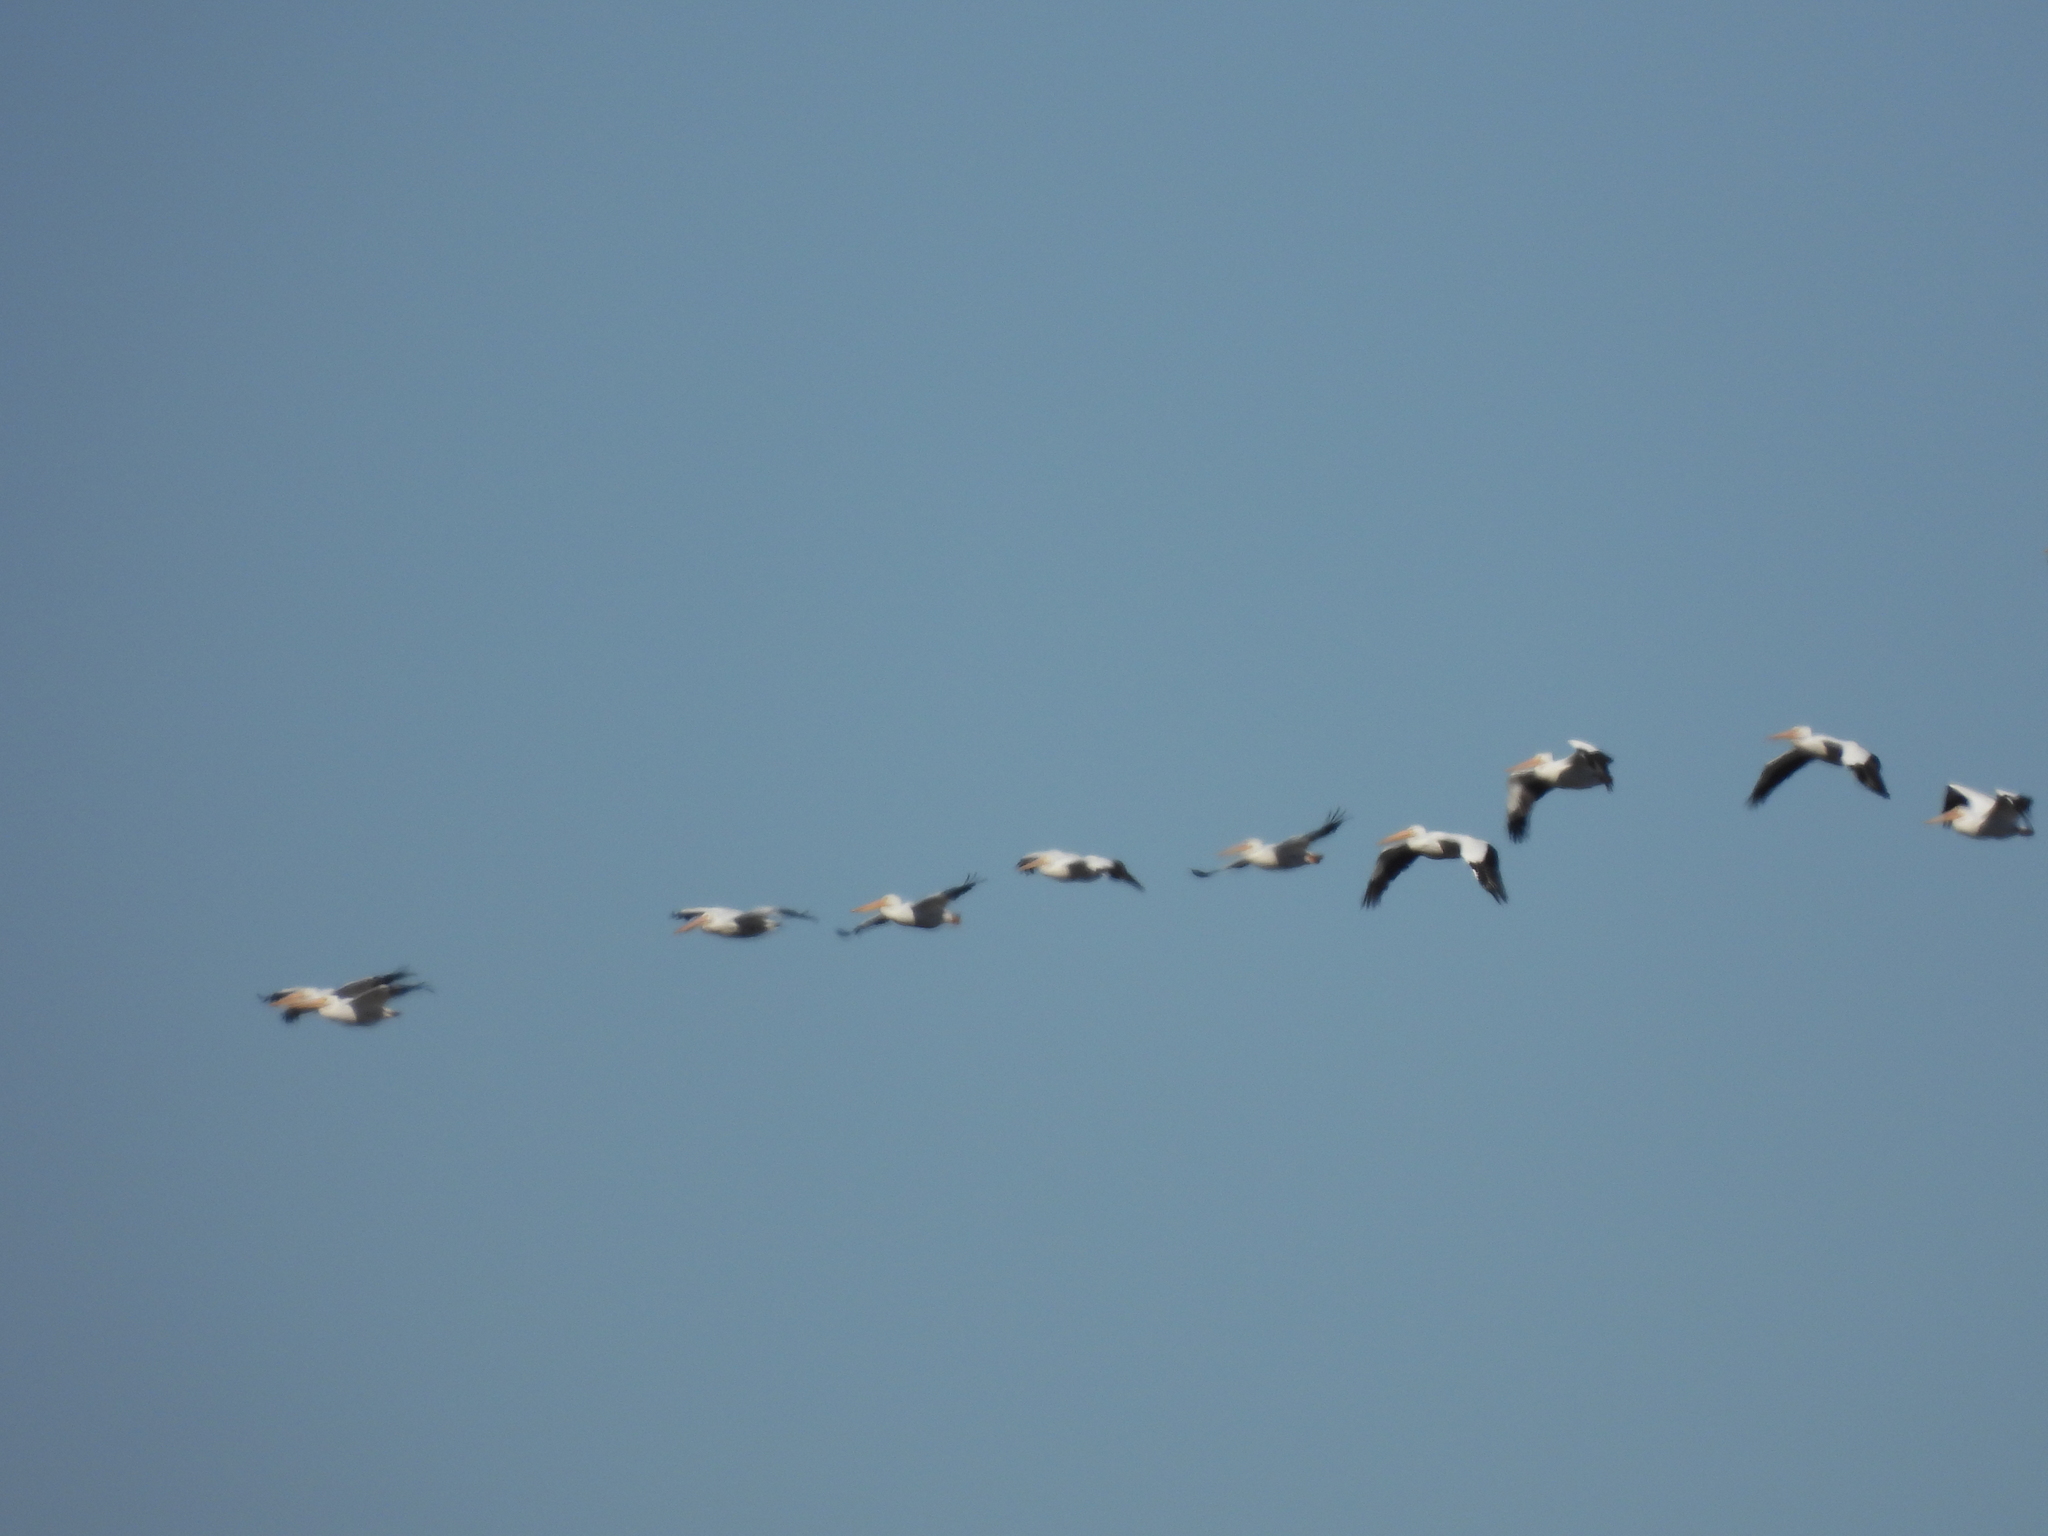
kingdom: Animalia
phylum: Chordata
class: Aves
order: Pelecaniformes
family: Pelecanidae
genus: Pelecanus
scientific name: Pelecanus erythrorhynchos
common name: American white pelican
